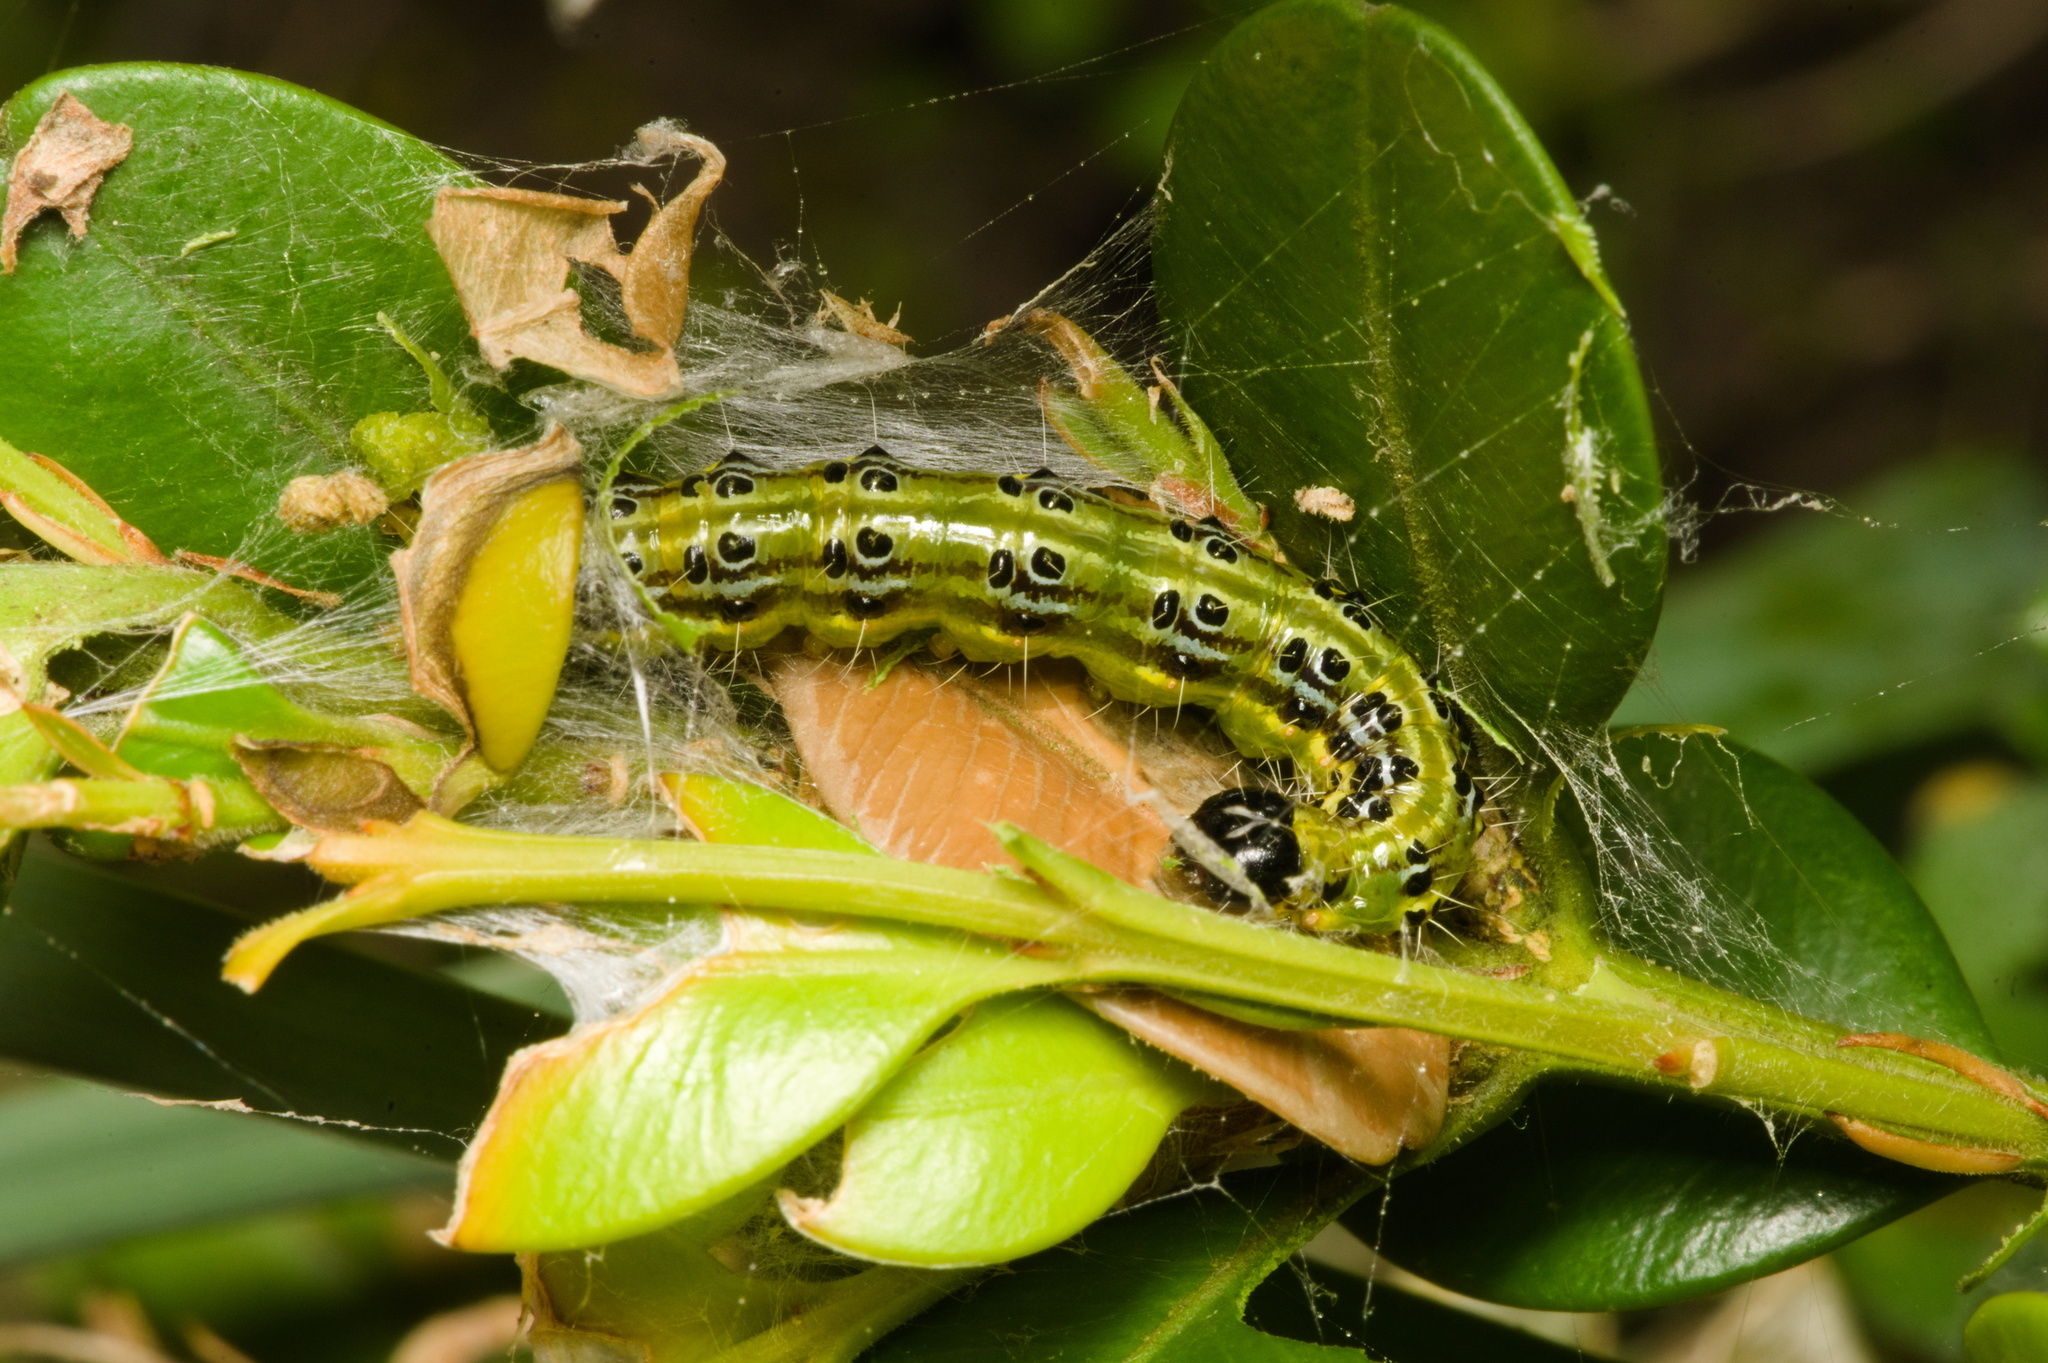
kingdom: Animalia
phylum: Arthropoda
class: Insecta
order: Lepidoptera
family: Crambidae
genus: Cydalima
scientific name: Cydalima perspectalis
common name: Box tree moth
